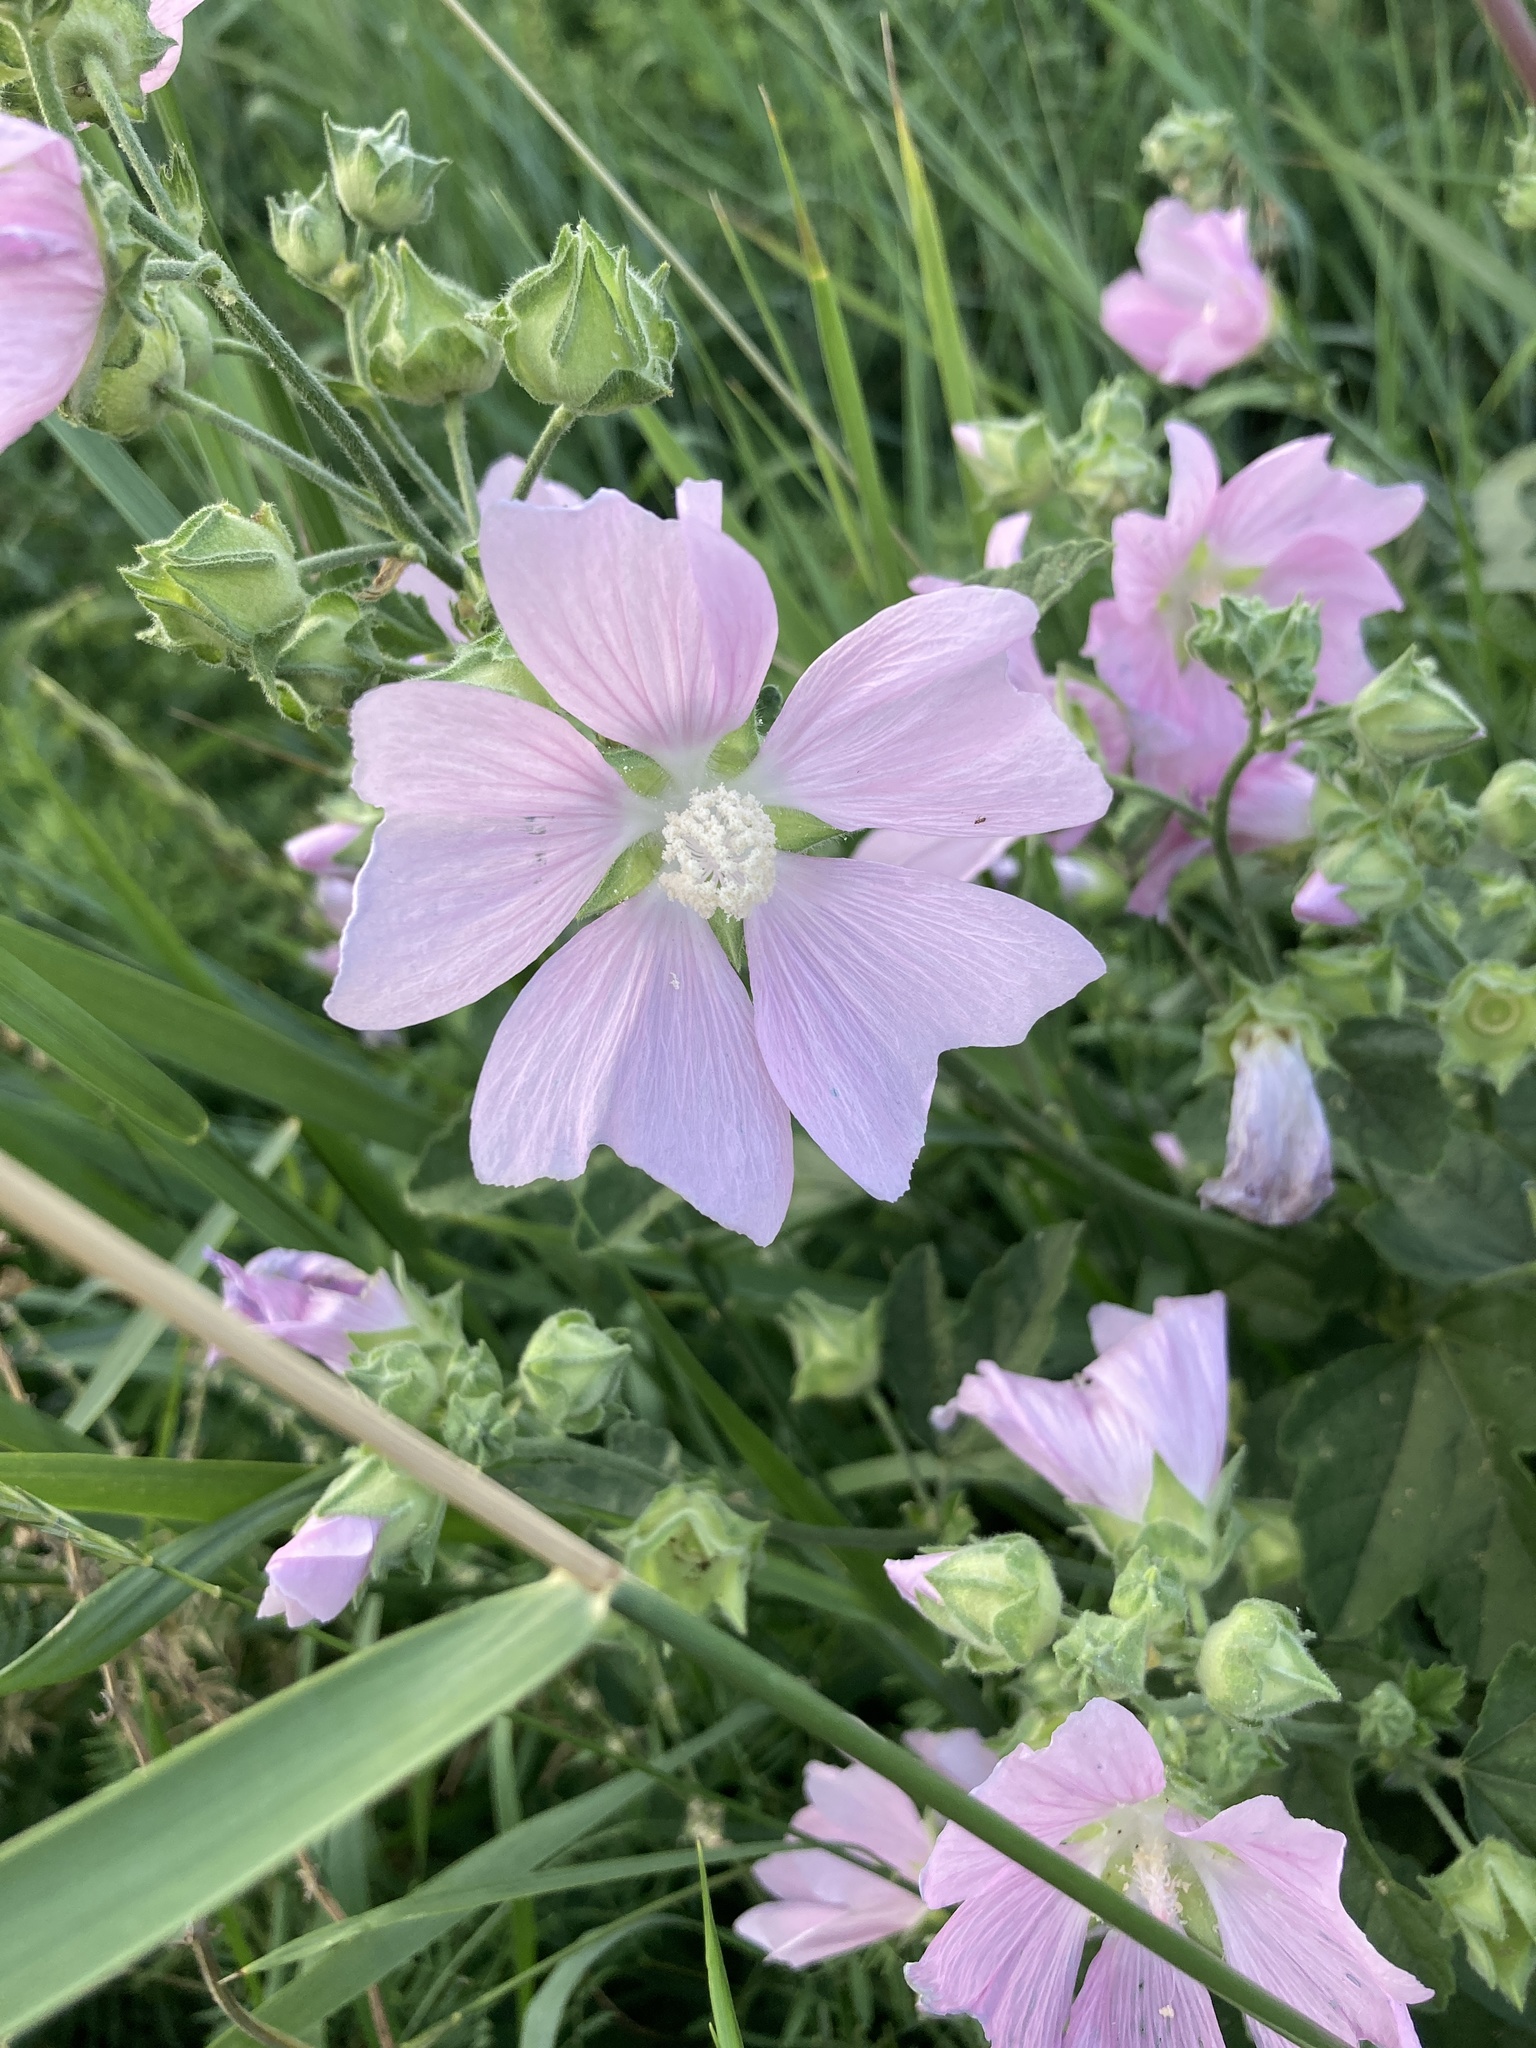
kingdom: Plantae
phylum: Tracheophyta
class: Magnoliopsida
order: Malvales
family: Malvaceae
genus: Malva
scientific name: Malva thuringiaca
